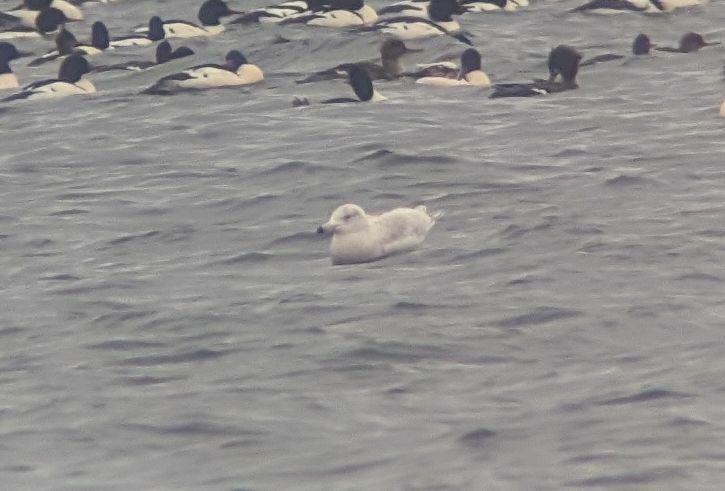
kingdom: Animalia
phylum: Chordata
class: Aves
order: Charadriiformes
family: Laridae
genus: Larus
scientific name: Larus hyperboreus
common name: Glaucous gull
